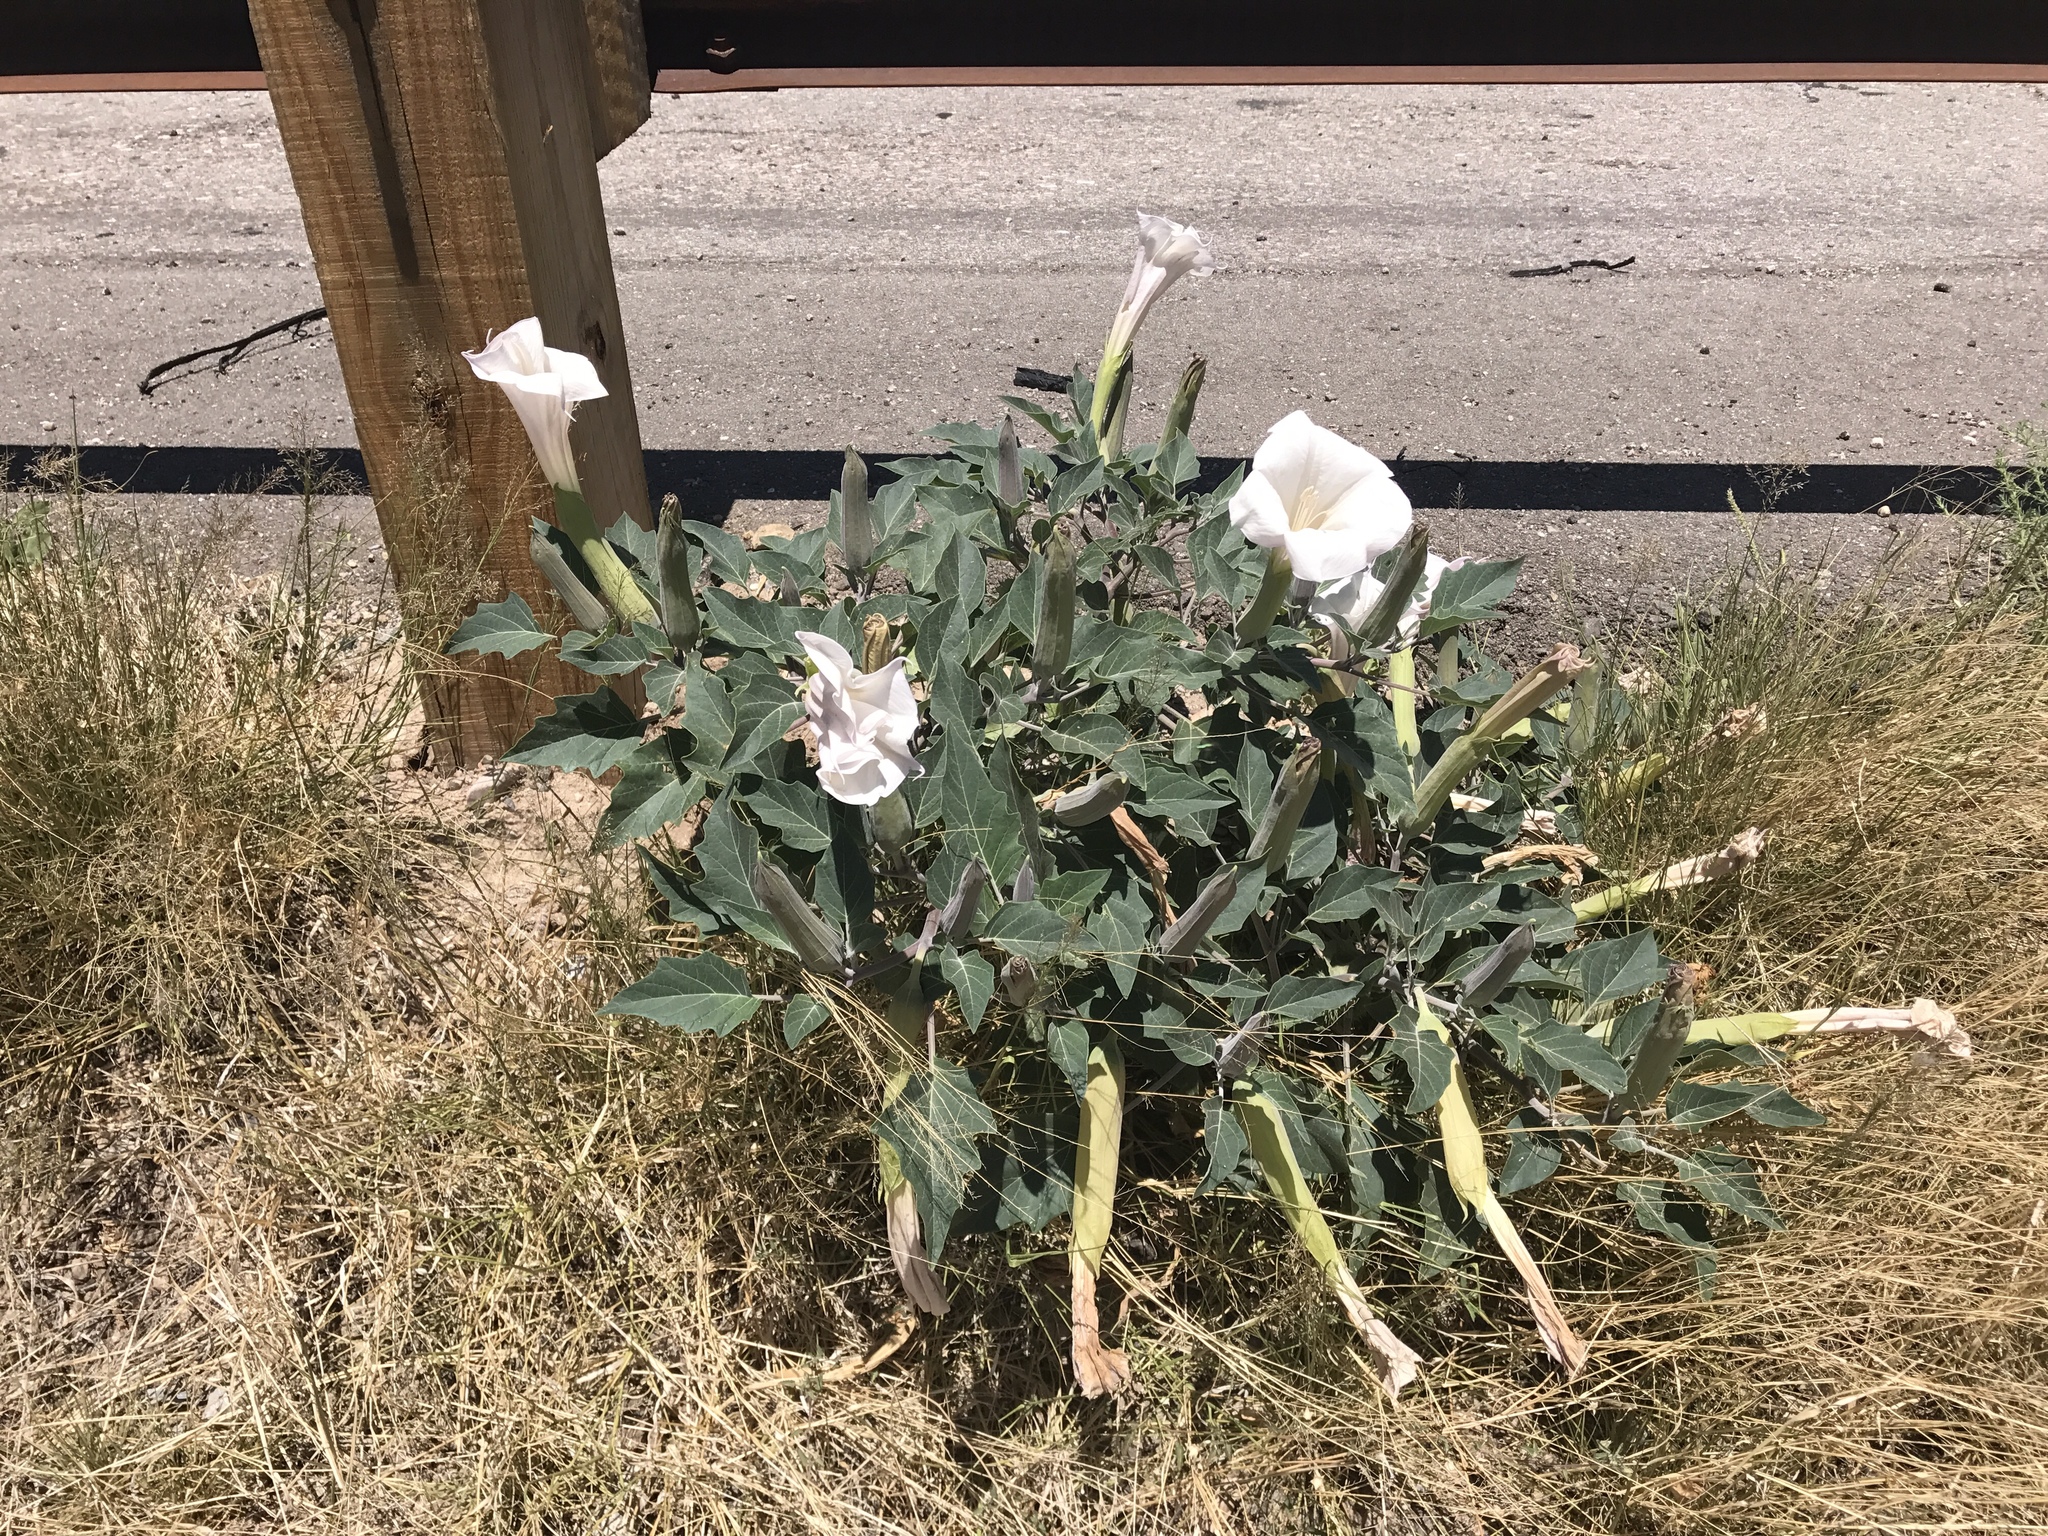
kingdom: Plantae
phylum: Tracheophyta
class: Magnoliopsida
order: Solanales
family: Solanaceae
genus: Datura
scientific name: Datura wrightii
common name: Sacred thorn-apple
